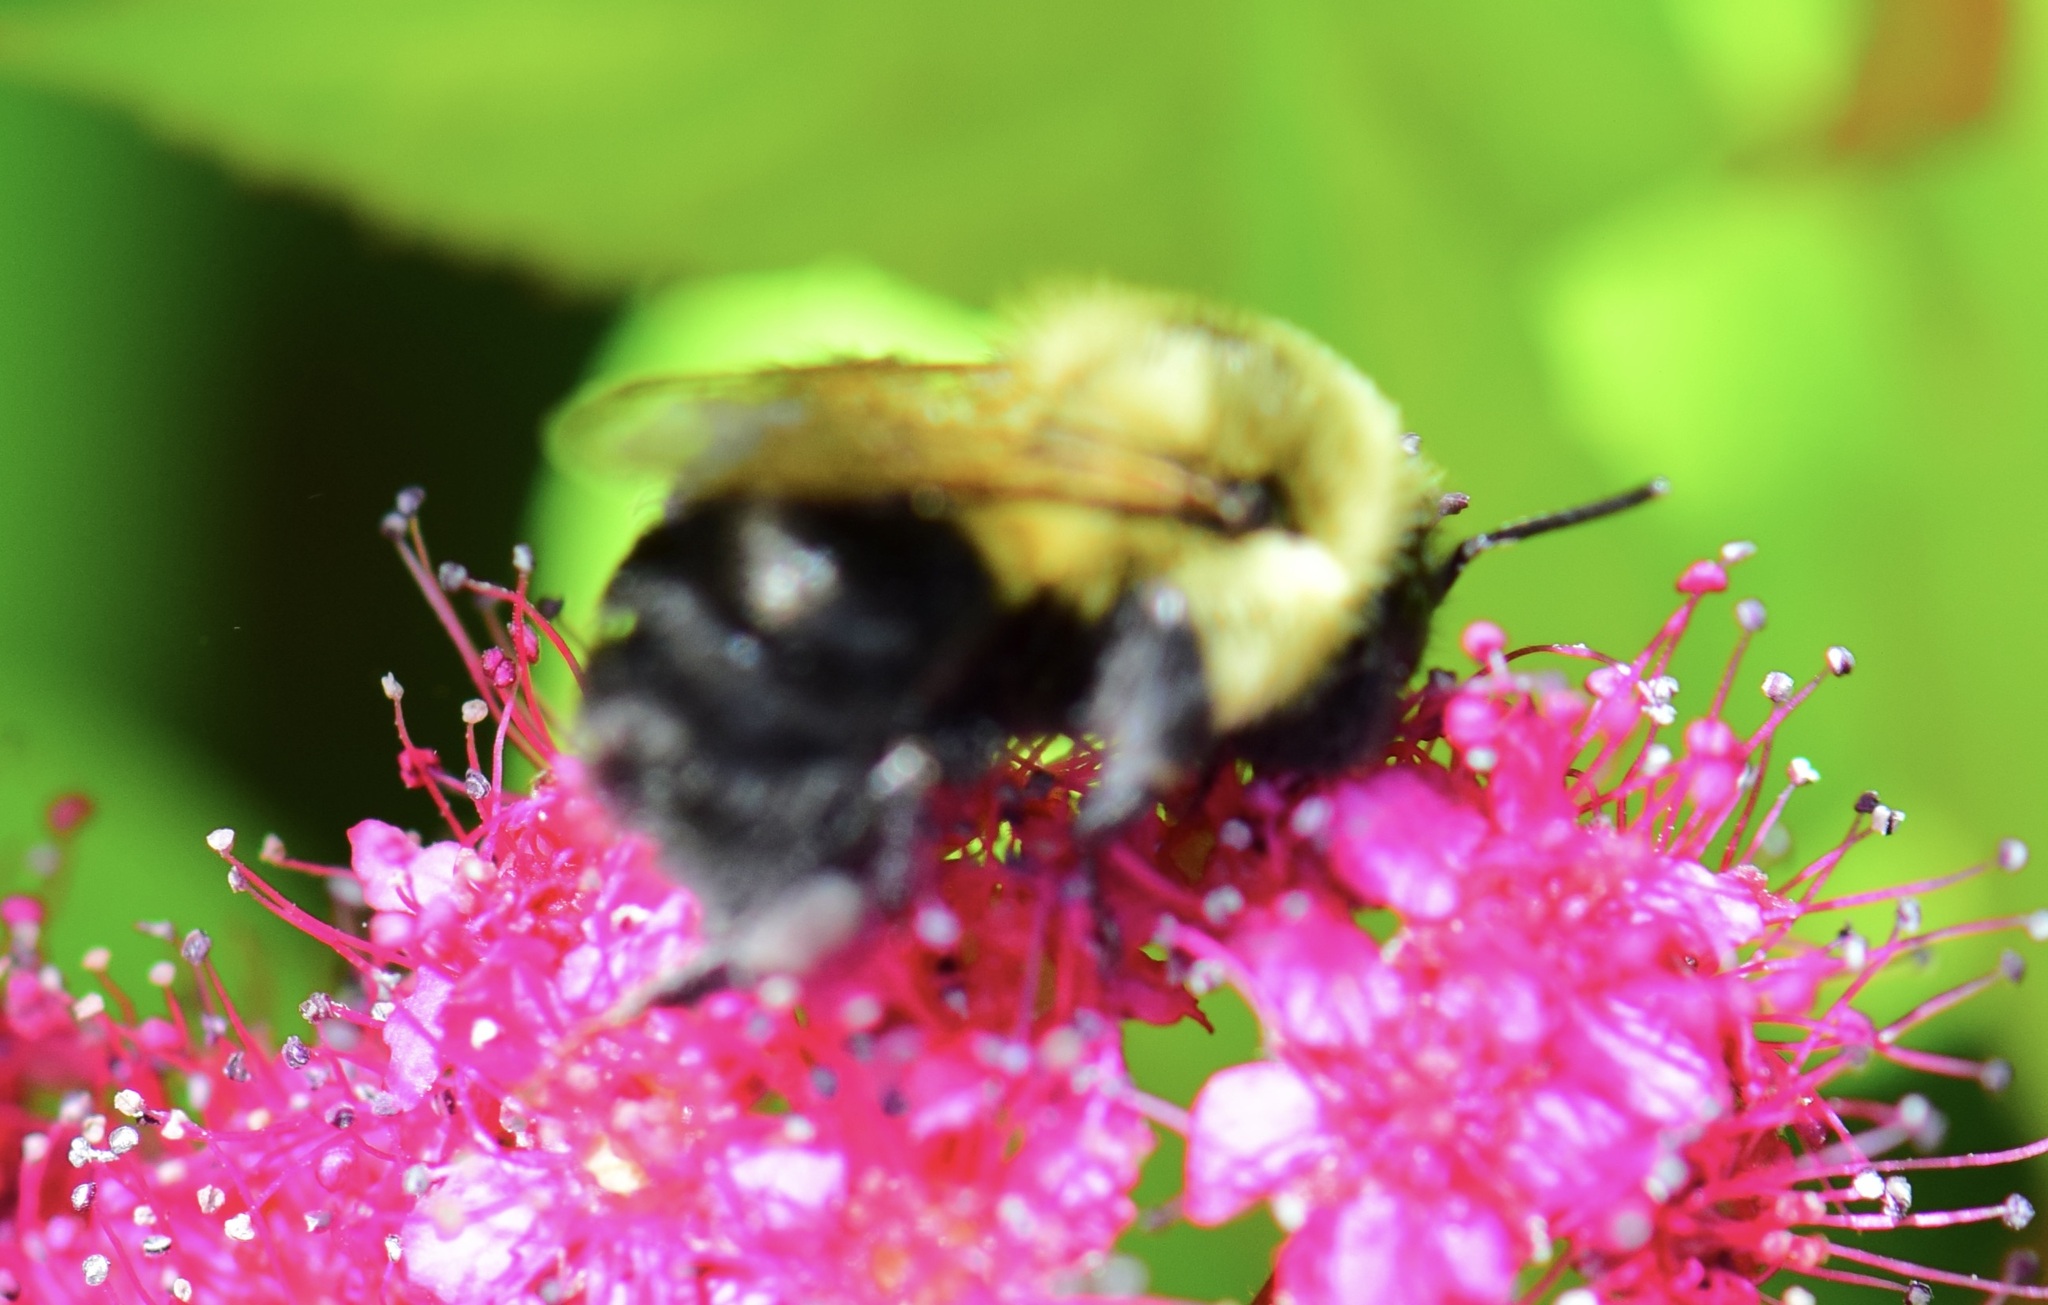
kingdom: Animalia
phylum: Arthropoda
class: Insecta
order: Hymenoptera
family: Apidae
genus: Bombus
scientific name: Bombus impatiens
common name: Common eastern bumble bee
